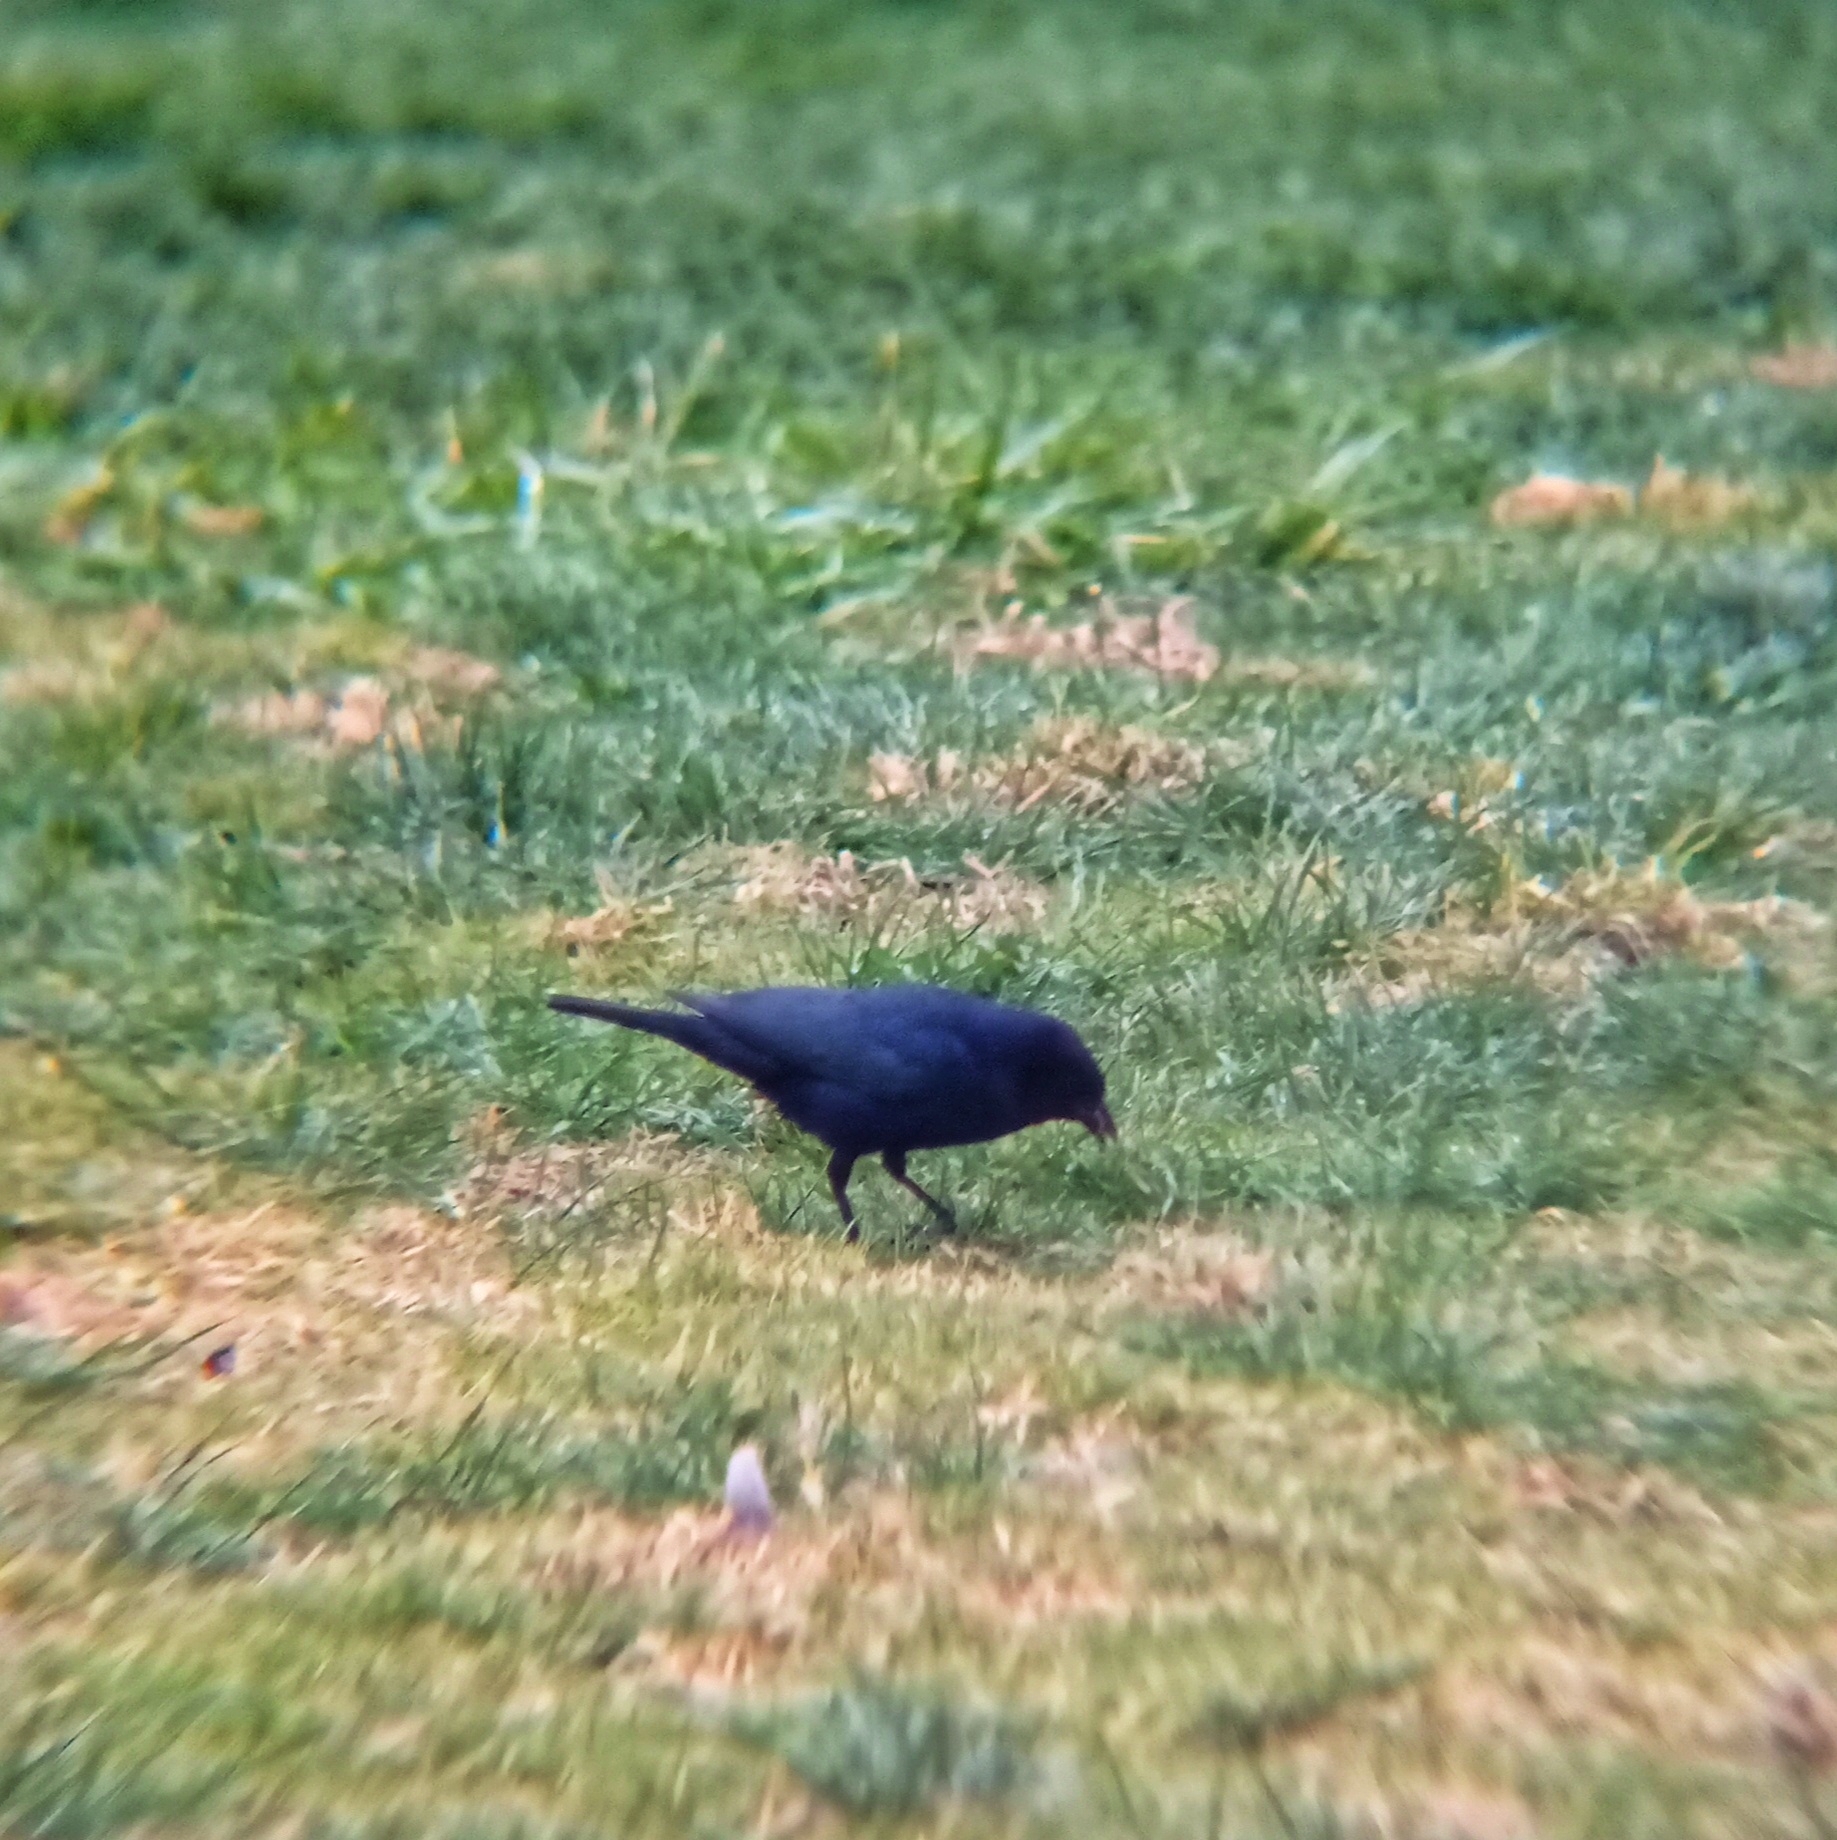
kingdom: Animalia
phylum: Chordata
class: Aves
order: Passeriformes
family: Icteridae
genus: Molothrus
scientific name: Molothrus bonariensis
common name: Shiny cowbird
